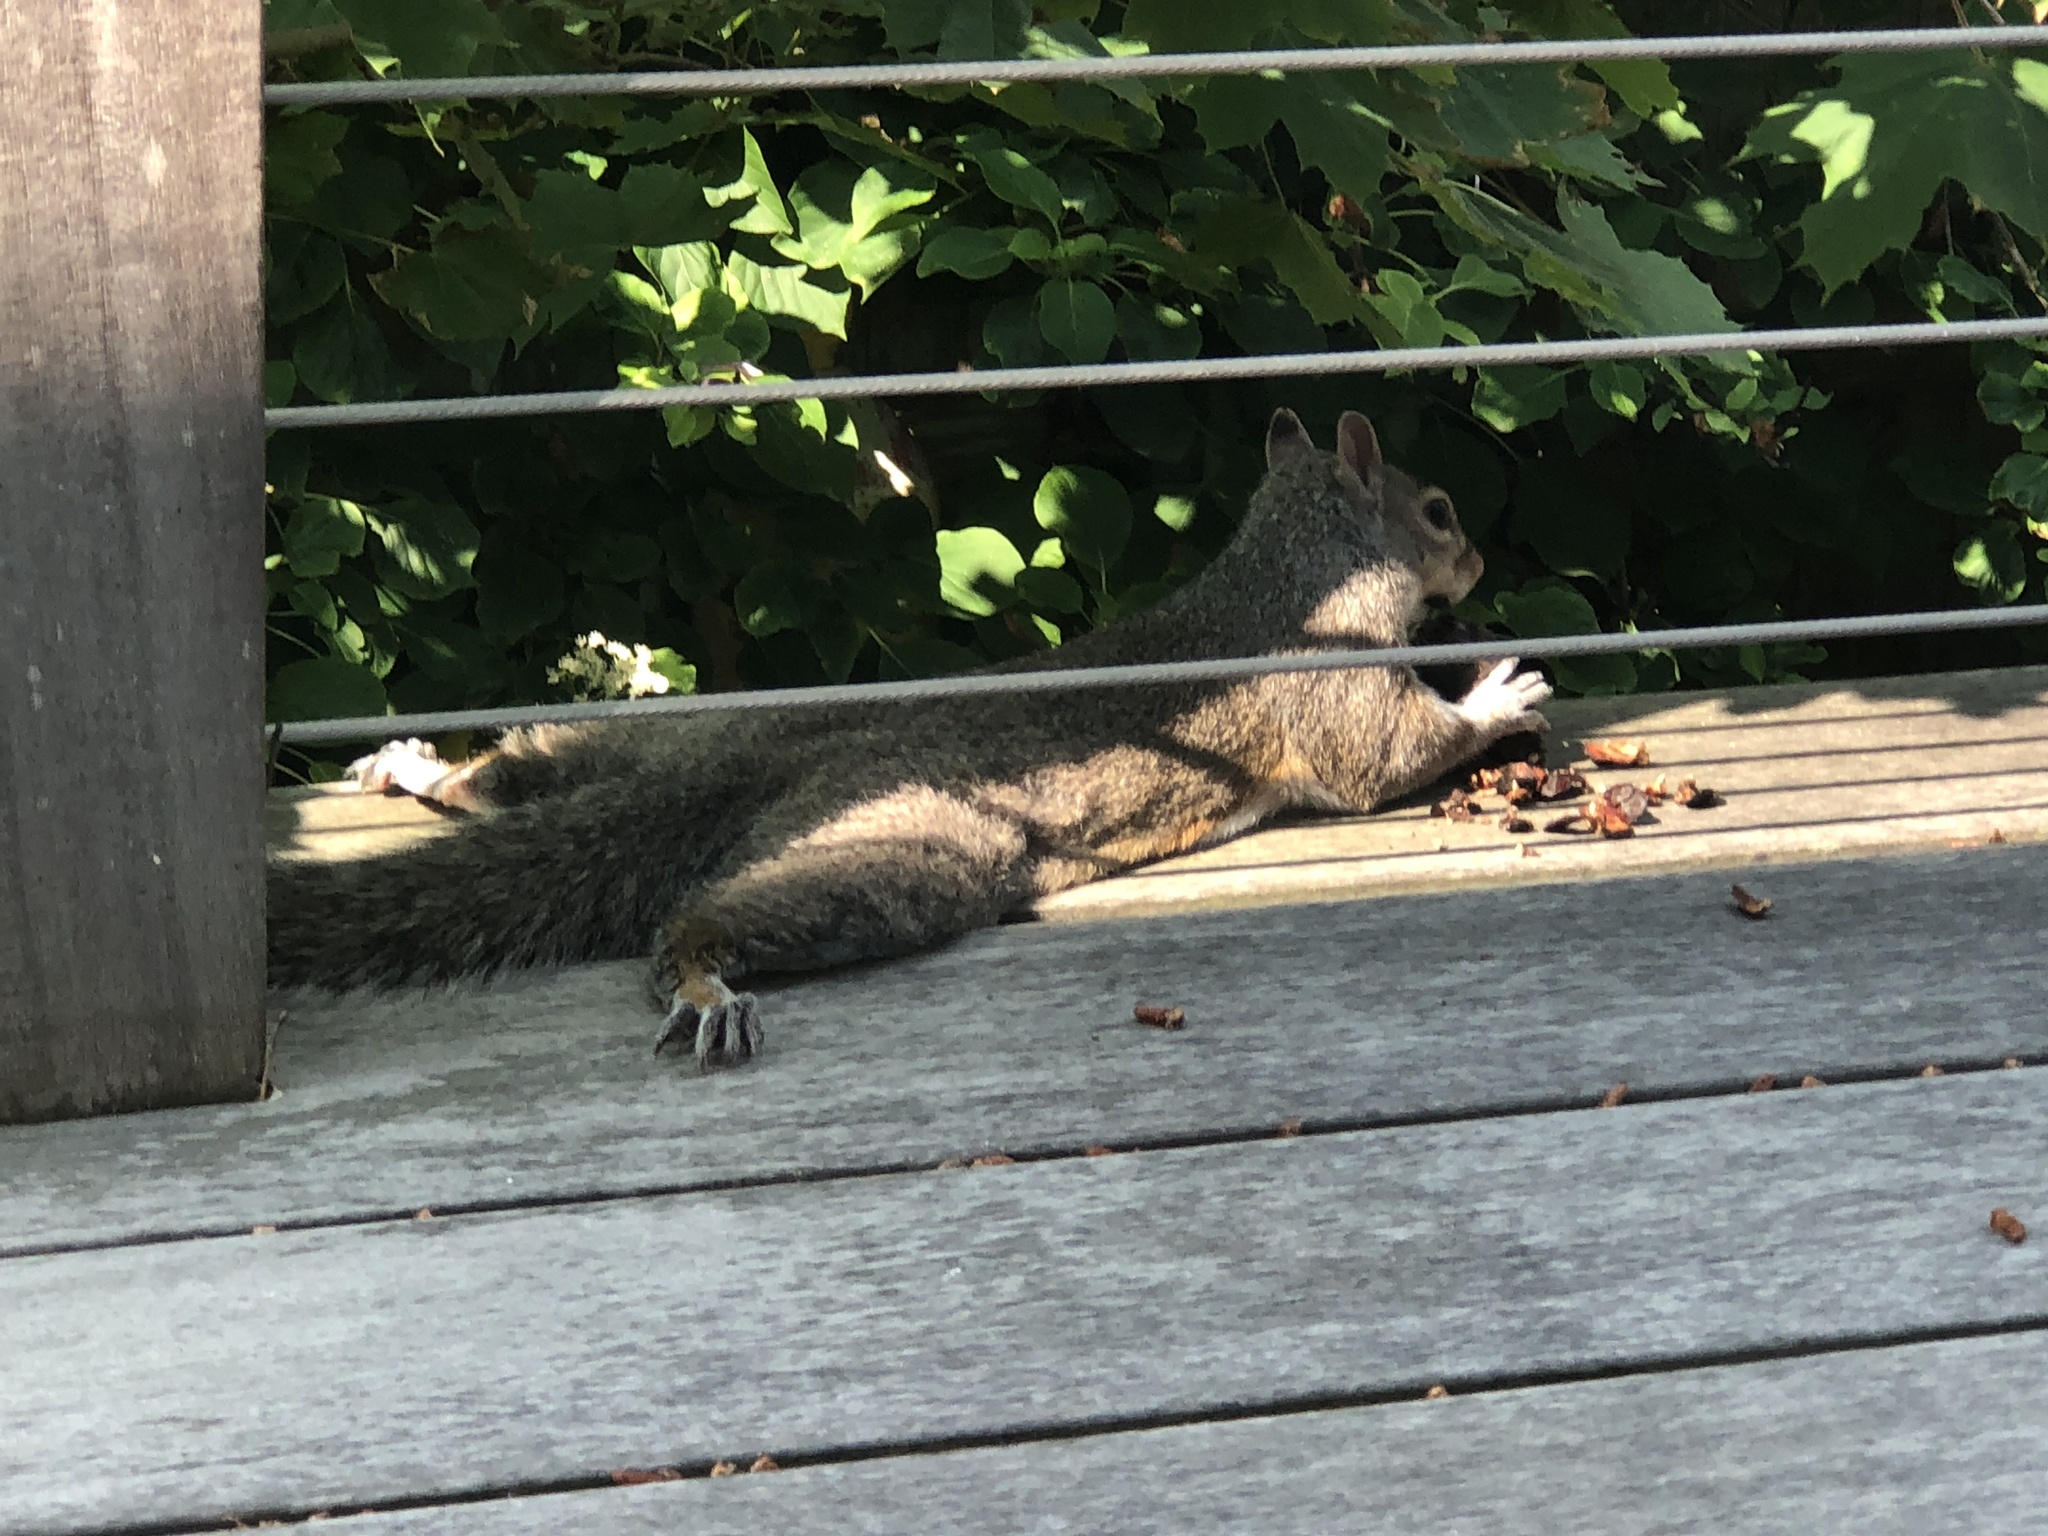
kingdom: Animalia
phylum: Chordata
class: Mammalia
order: Rodentia
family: Sciuridae
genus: Sciurus
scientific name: Sciurus carolinensis
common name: Eastern gray squirrel
